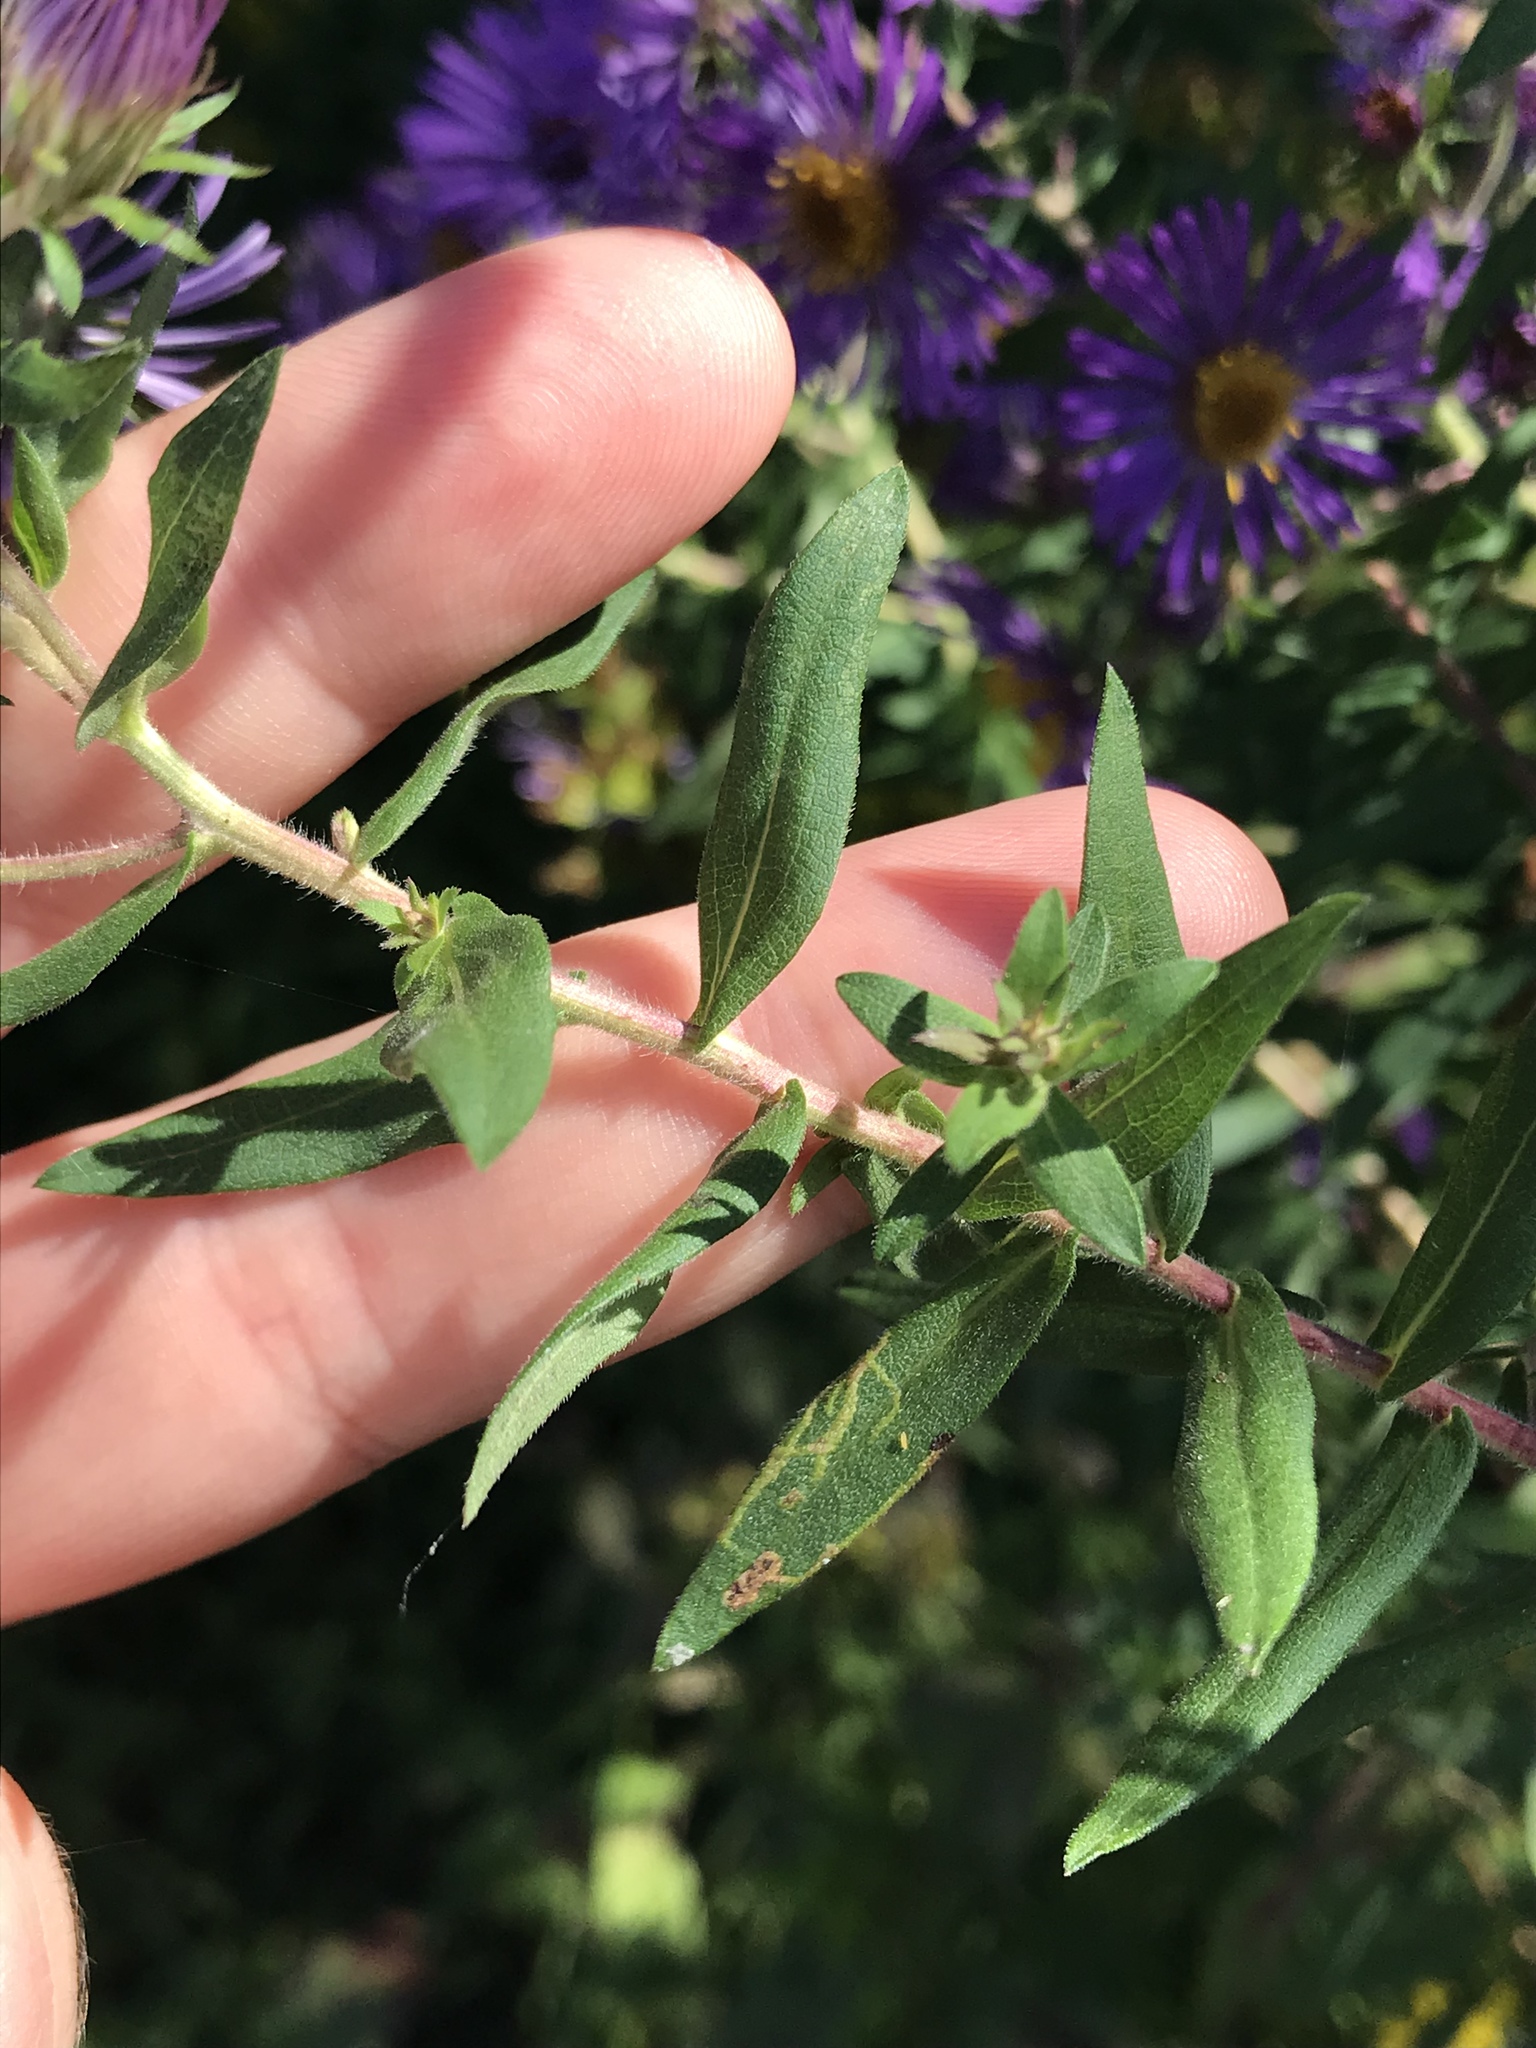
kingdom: Plantae
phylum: Tracheophyta
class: Magnoliopsida
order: Asterales
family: Asteraceae
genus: Symphyotrichum
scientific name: Symphyotrichum novae-angliae
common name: Michaelmas daisy
